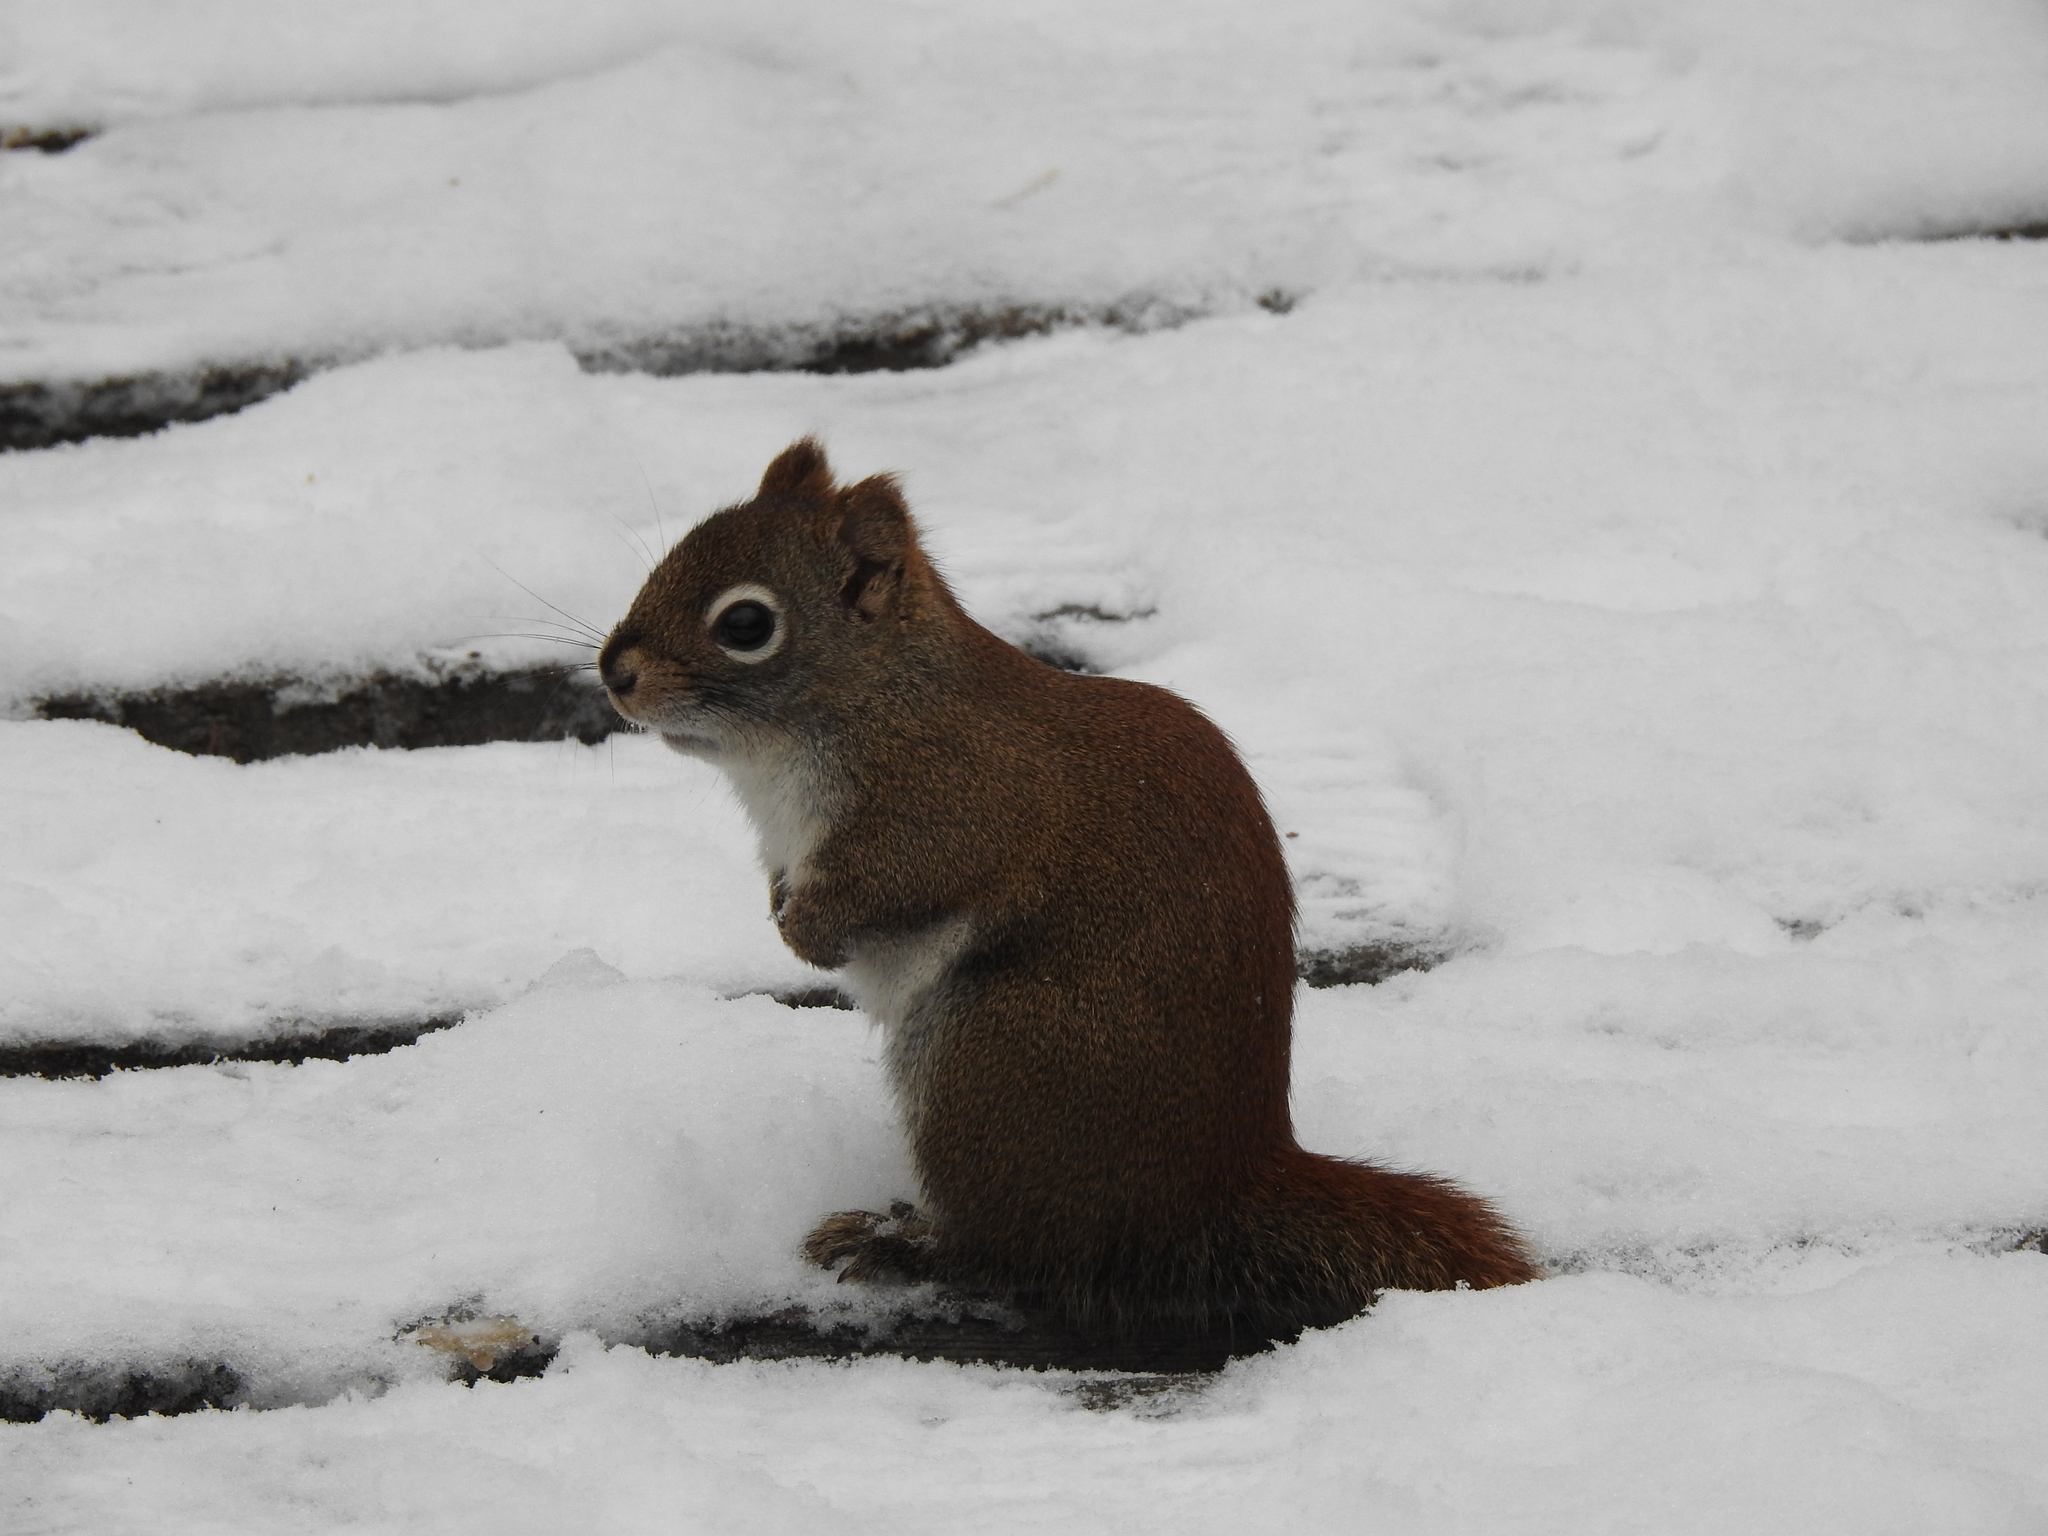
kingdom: Animalia
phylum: Chordata
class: Mammalia
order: Rodentia
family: Sciuridae
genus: Tamiasciurus
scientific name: Tamiasciurus hudsonicus
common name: Red squirrel
